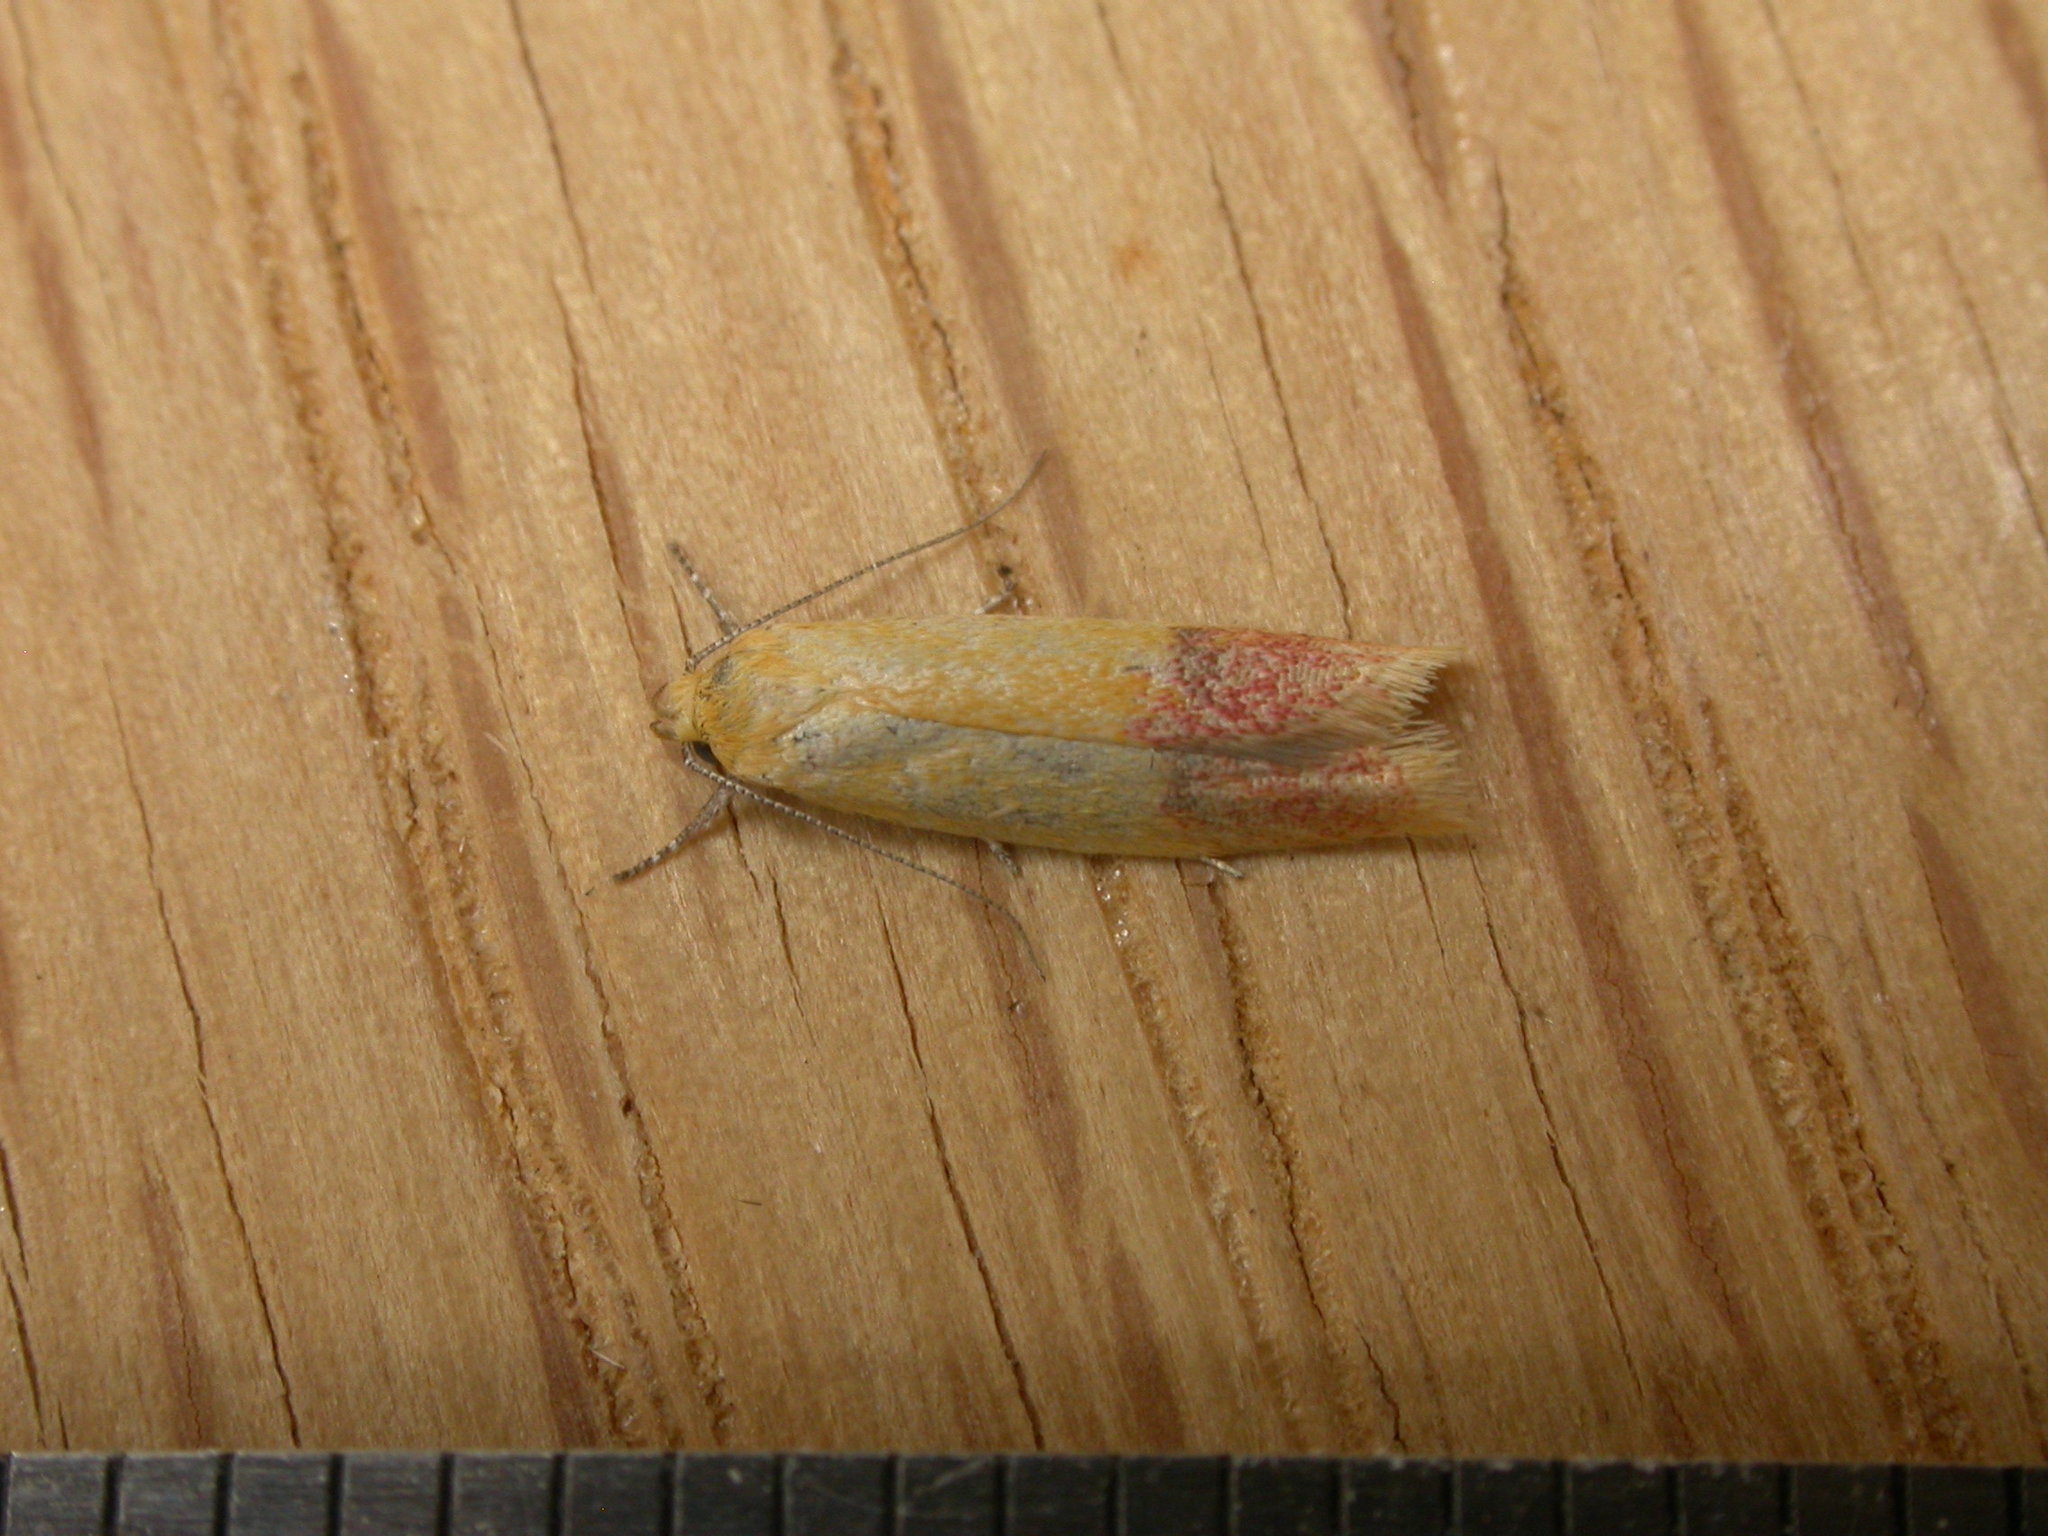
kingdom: Animalia
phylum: Arthropoda
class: Insecta
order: Lepidoptera
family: Oecophoridae
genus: Heteroteucha
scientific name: Heteroteucha parvula
